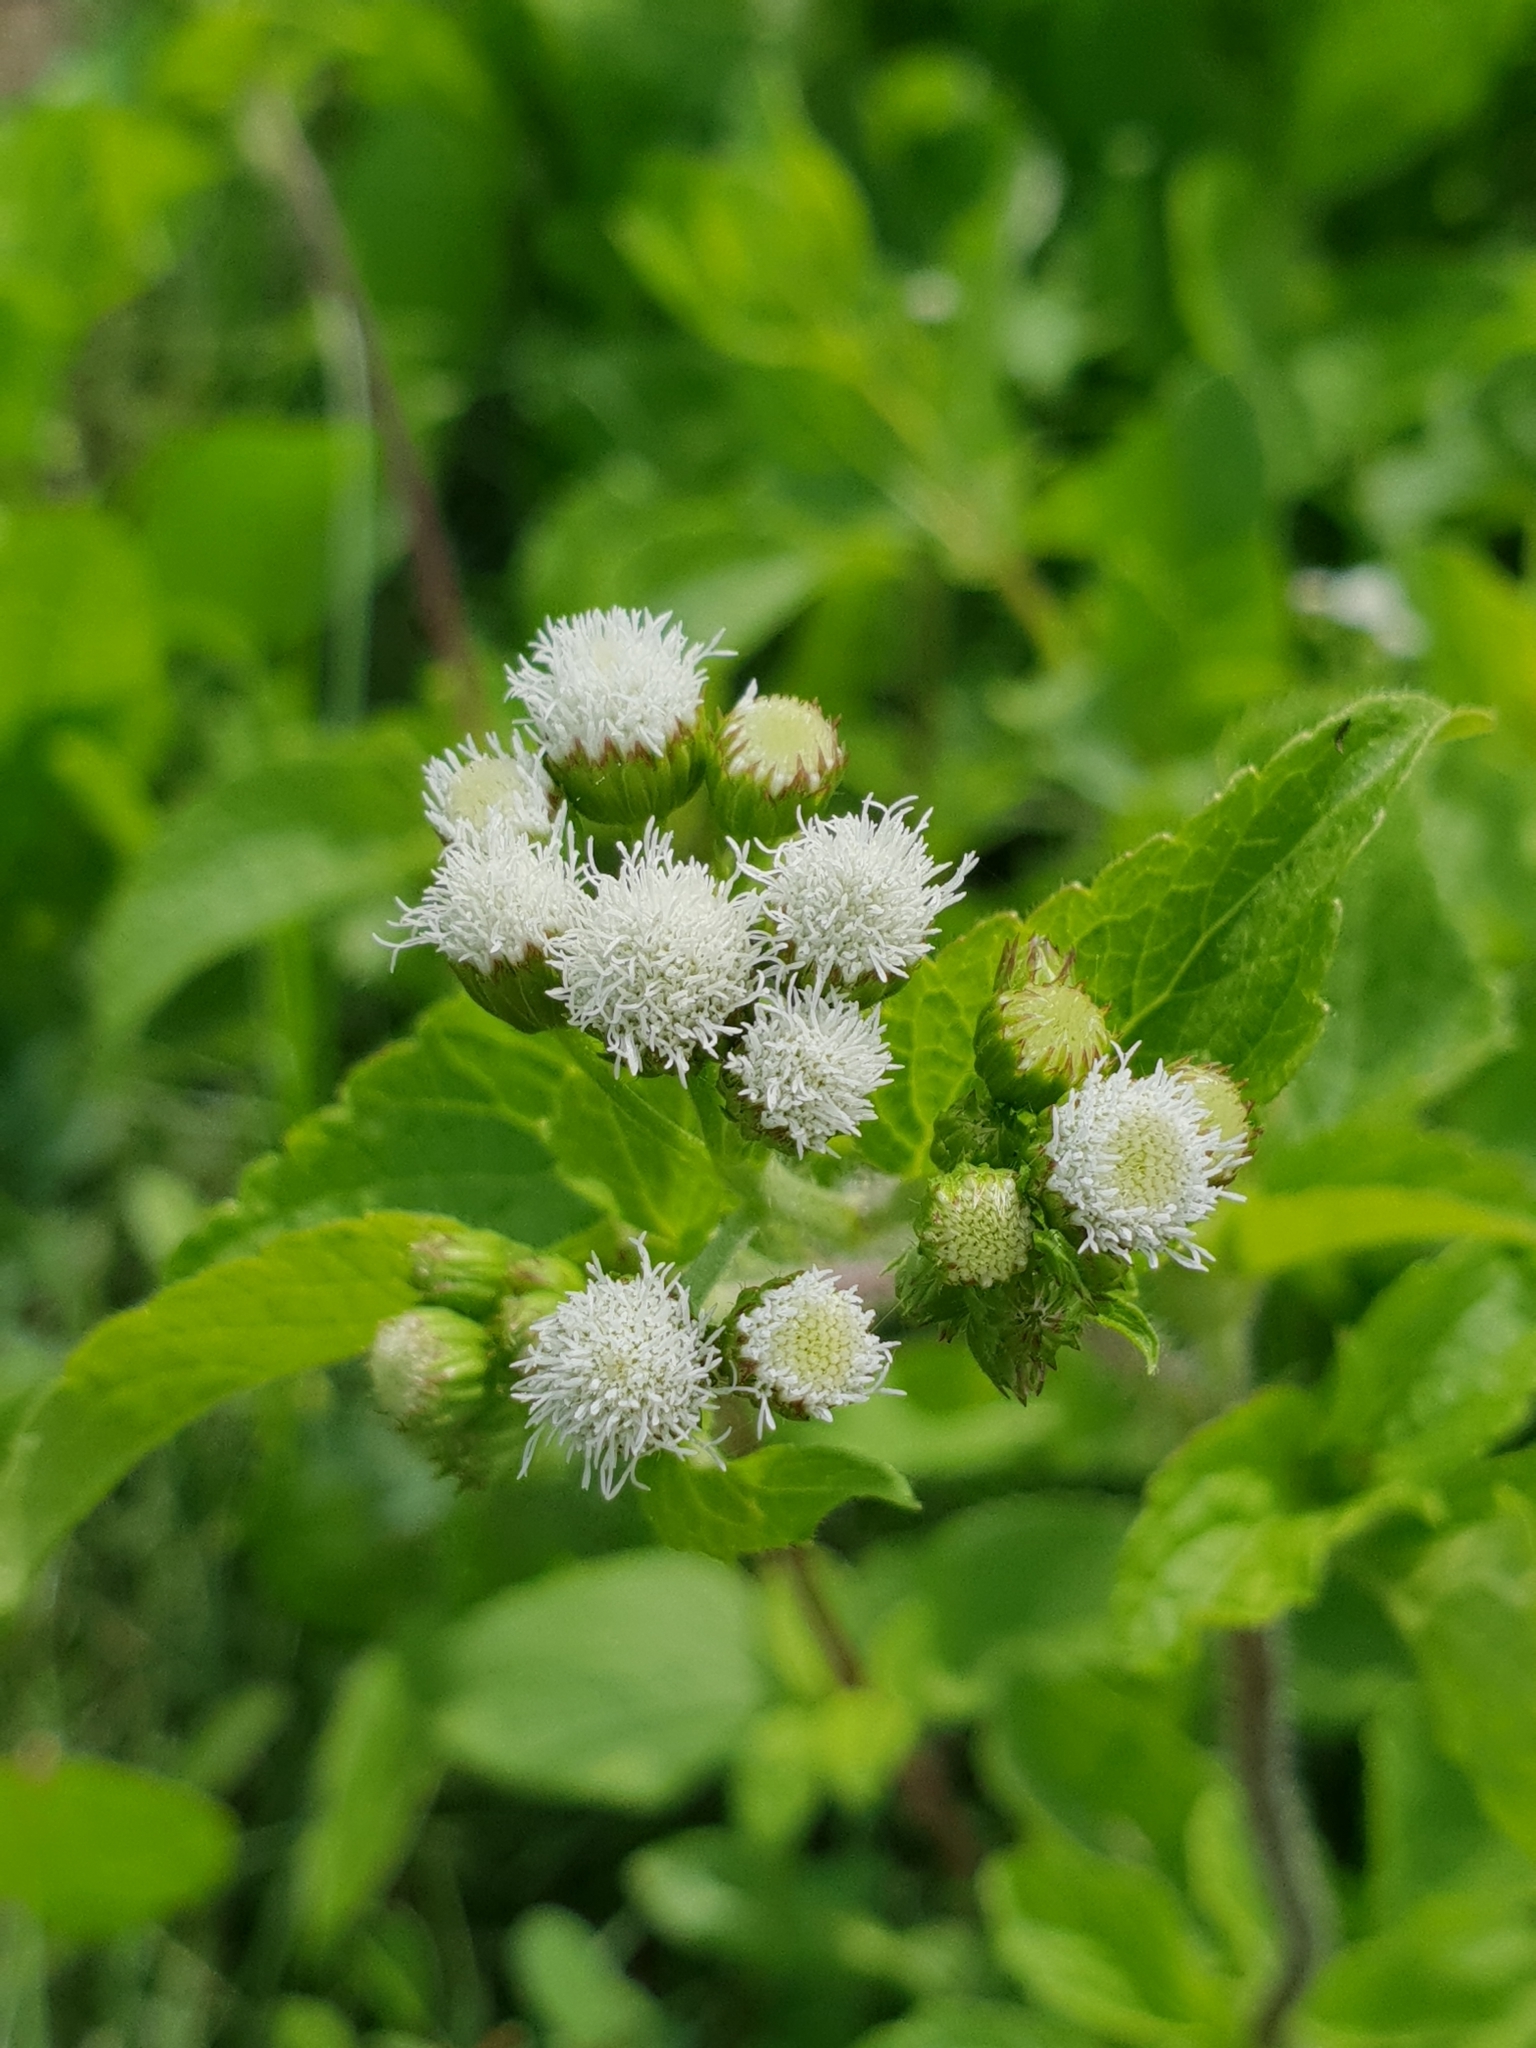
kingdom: Plantae
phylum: Tracheophyta
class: Magnoliopsida
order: Asterales
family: Asteraceae
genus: Ageratum
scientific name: Ageratum conyzoides
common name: Tropical whiteweed
